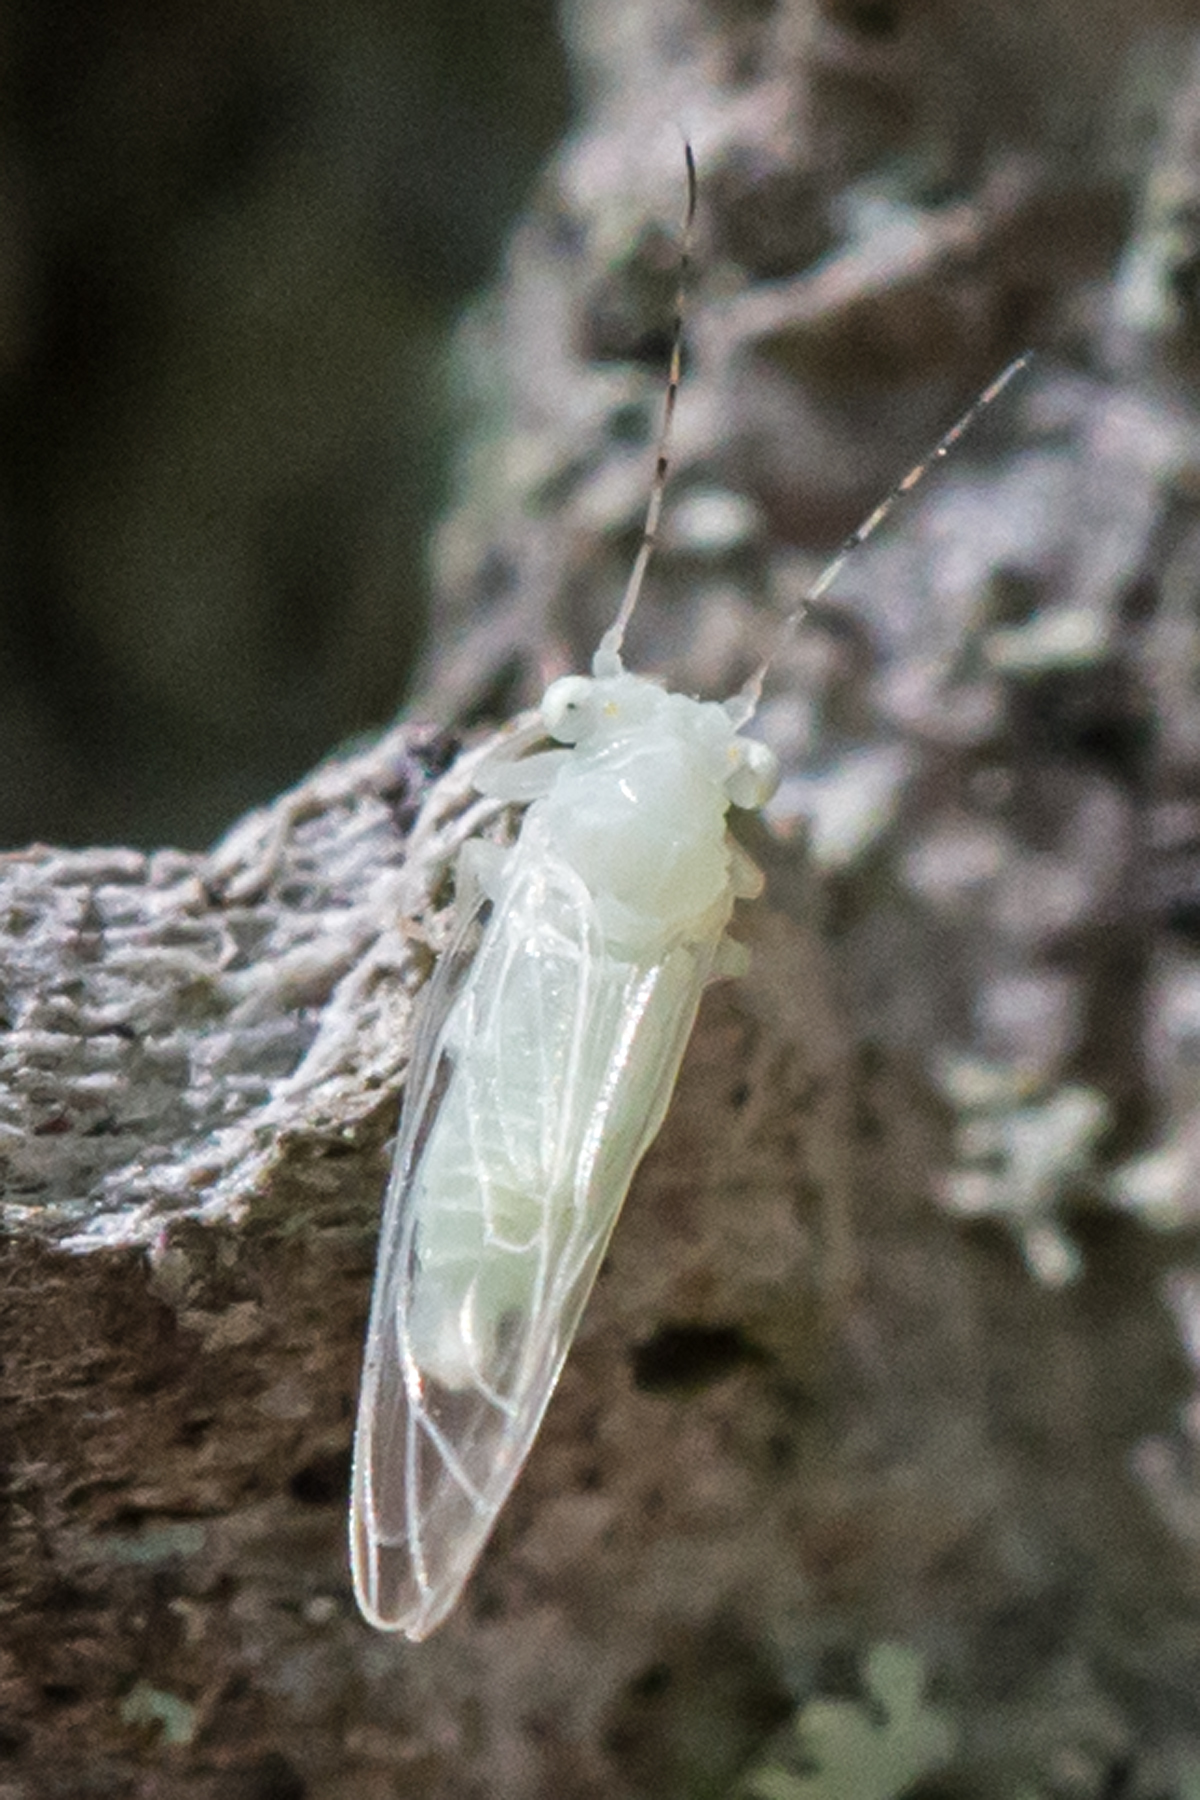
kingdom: Animalia
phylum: Arthropoda
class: Insecta
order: Hemiptera
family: Psyllidae
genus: Cacopsylla
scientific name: Cacopsylla annulata
